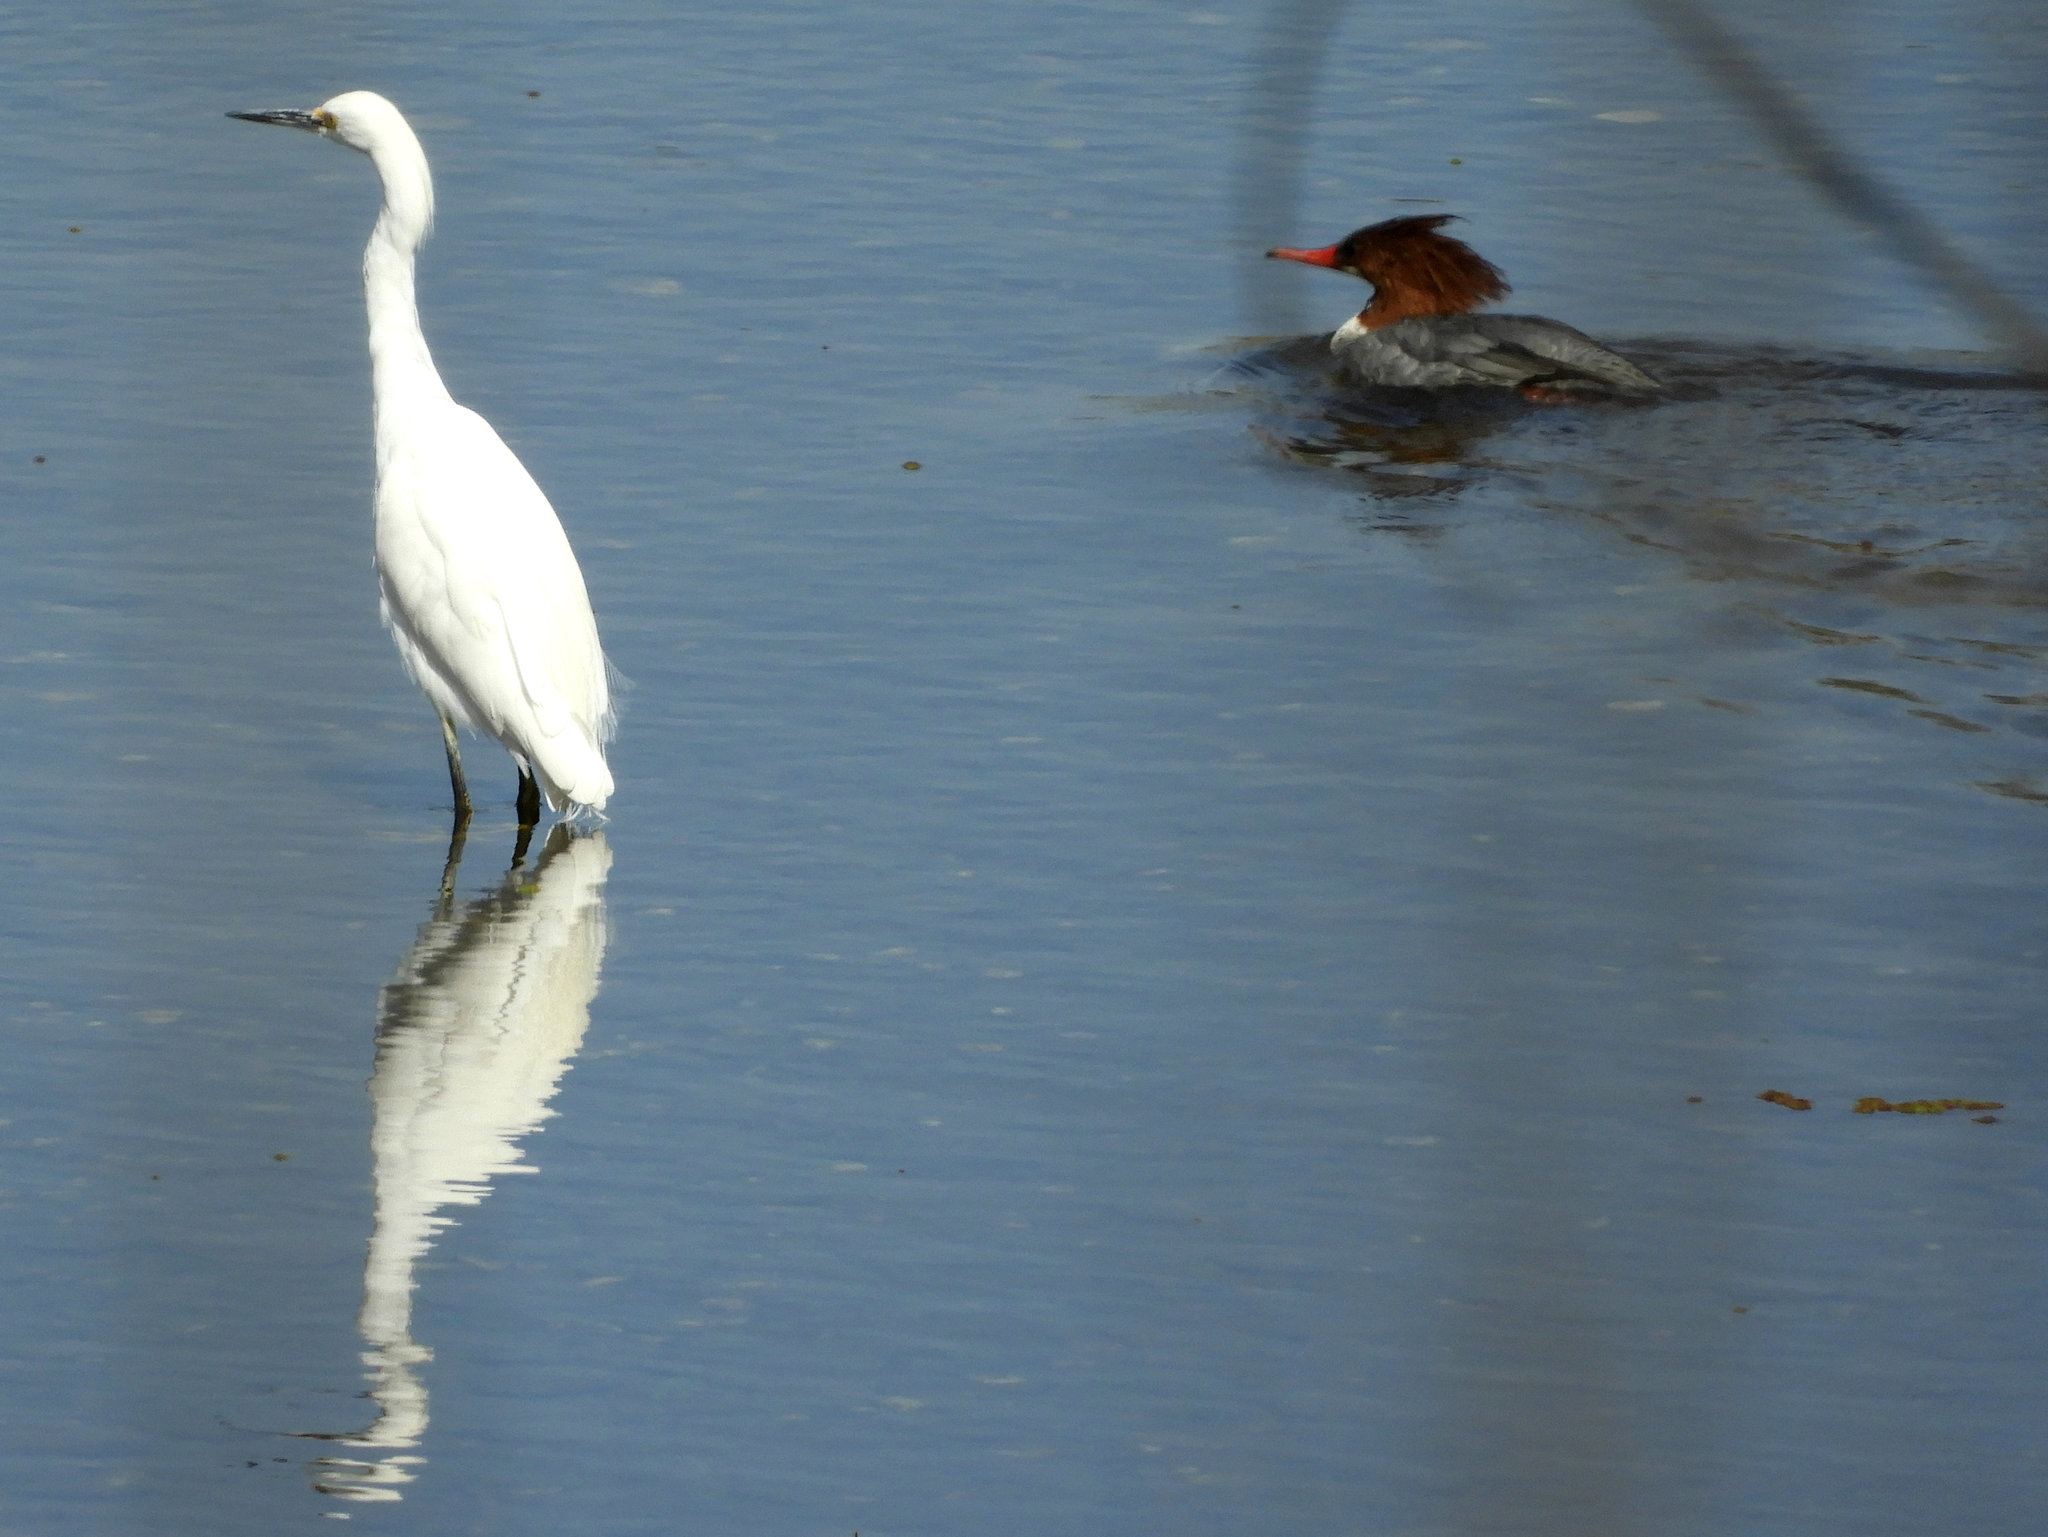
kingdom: Animalia
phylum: Chordata
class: Aves
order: Pelecaniformes
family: Ardeidae
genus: Egretta
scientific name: Egretta thula
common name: Snowy egret
